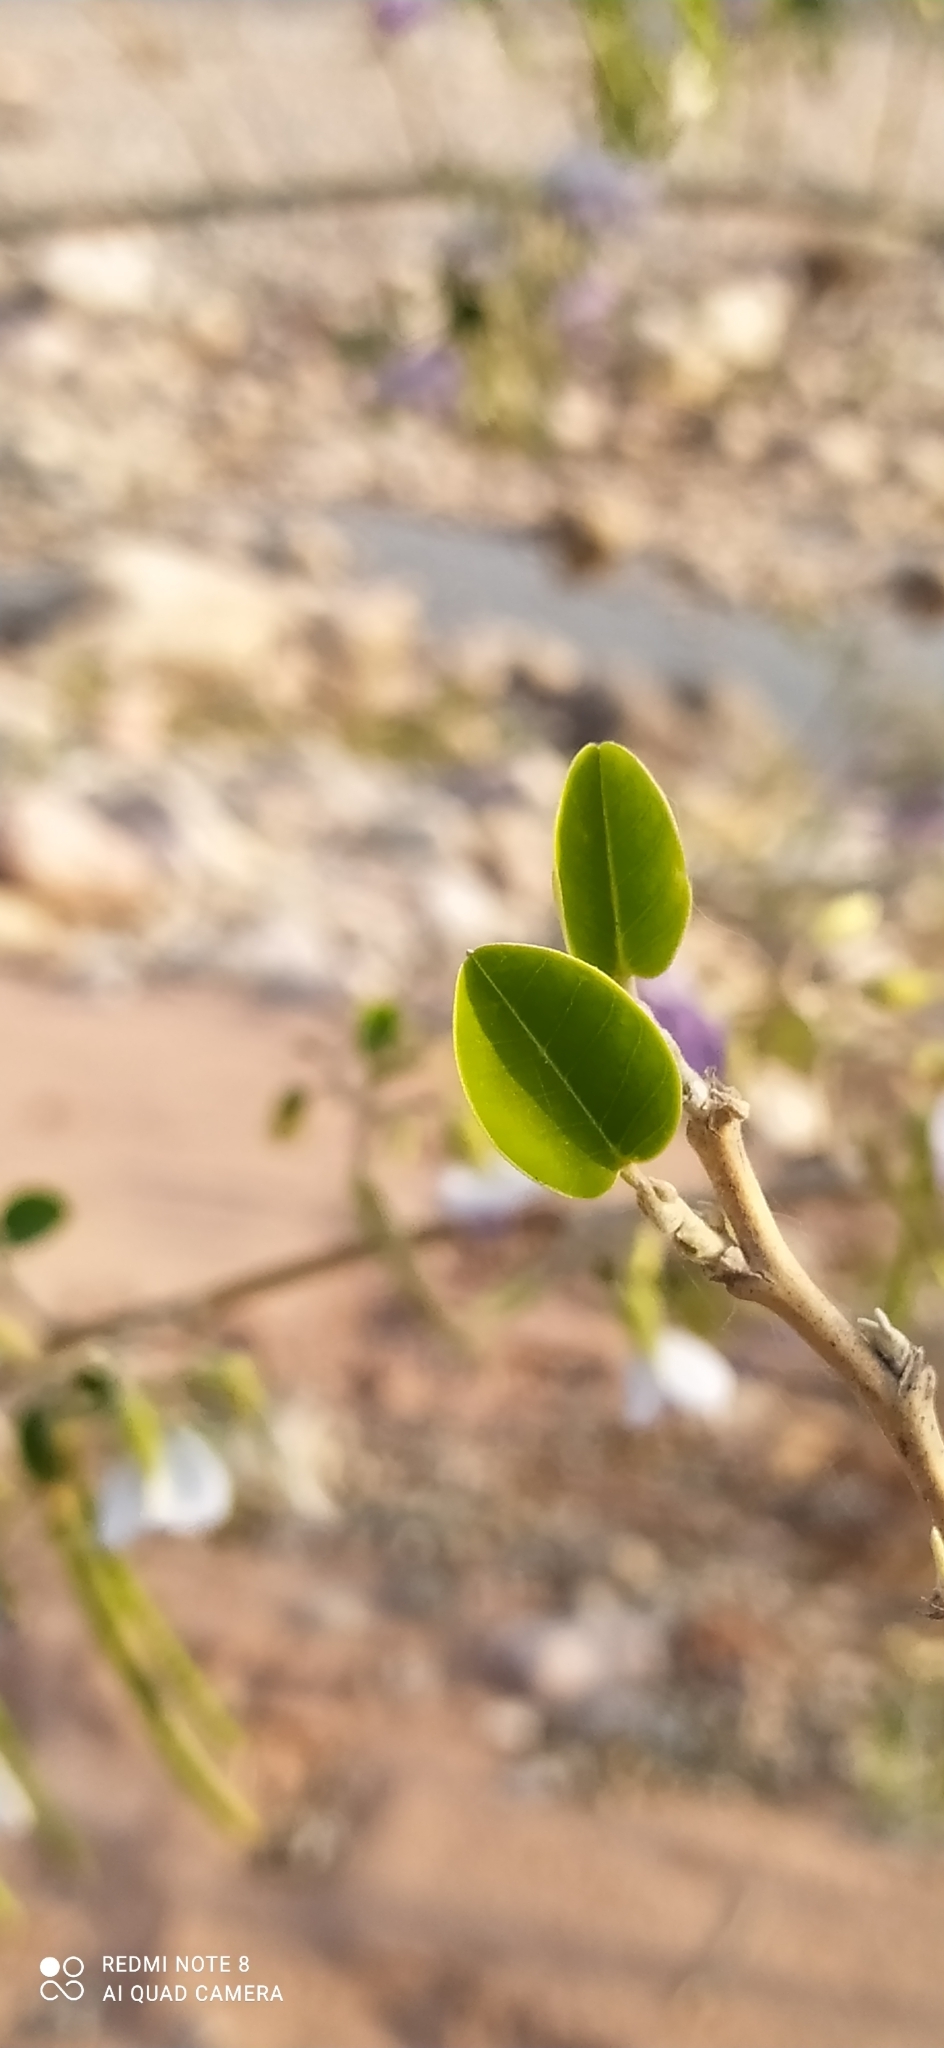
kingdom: Plantae
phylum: Tracheophyta
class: Magnoliopsida
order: Fabales
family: Fabaceae
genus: Poissonia
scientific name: Poissonia hypoleuca
